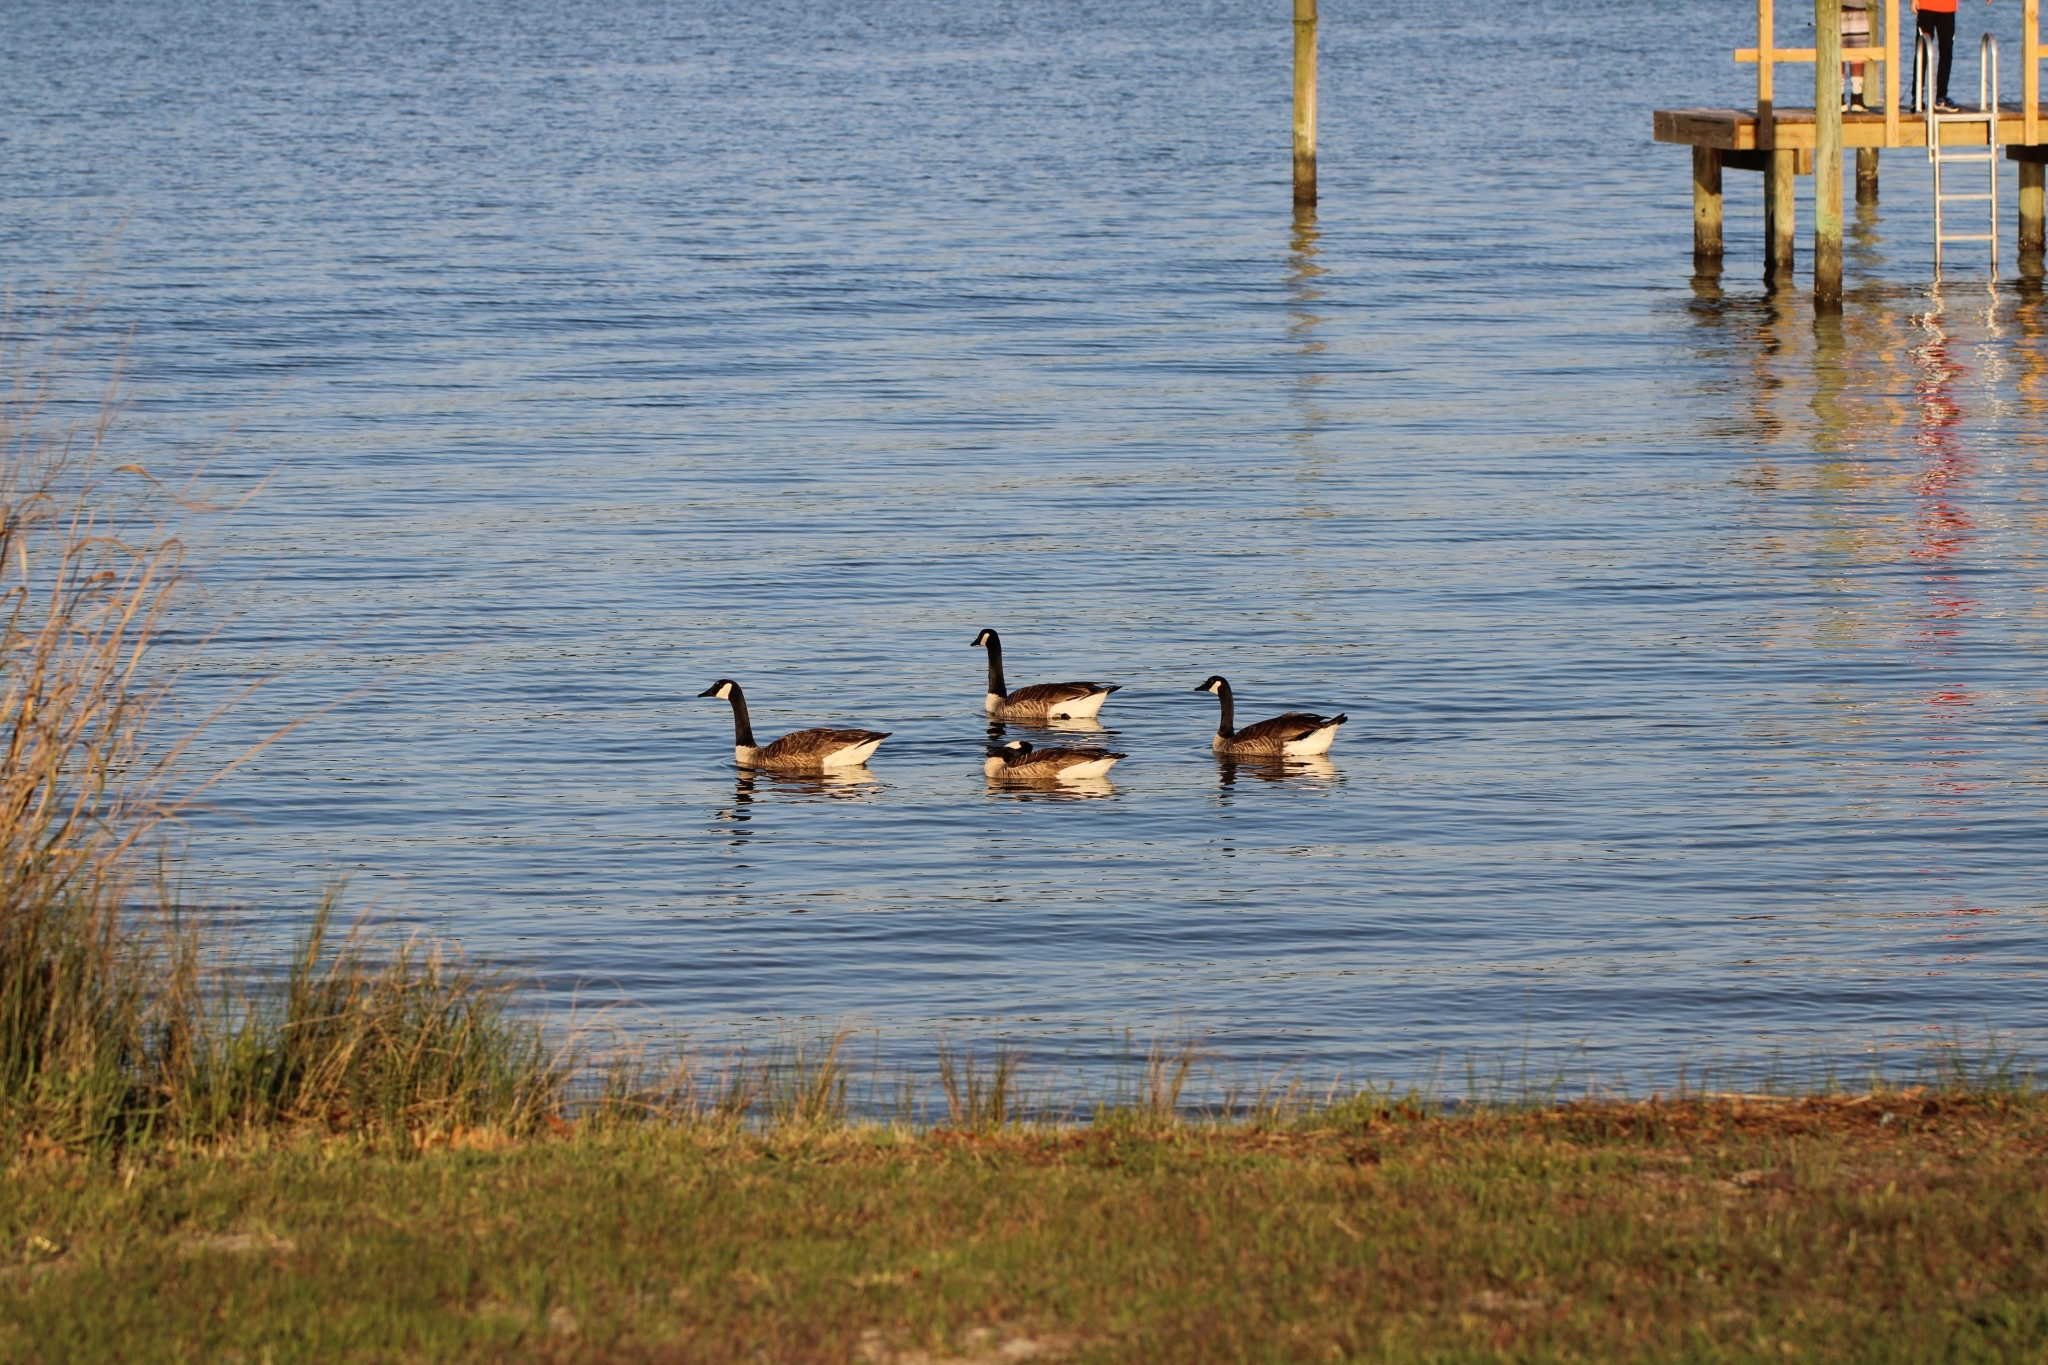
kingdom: Animalia
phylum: Chordata
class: Aves
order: Anseriformes
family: Anatidae
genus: Branta
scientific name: Branta canadensis
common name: Canada goose
